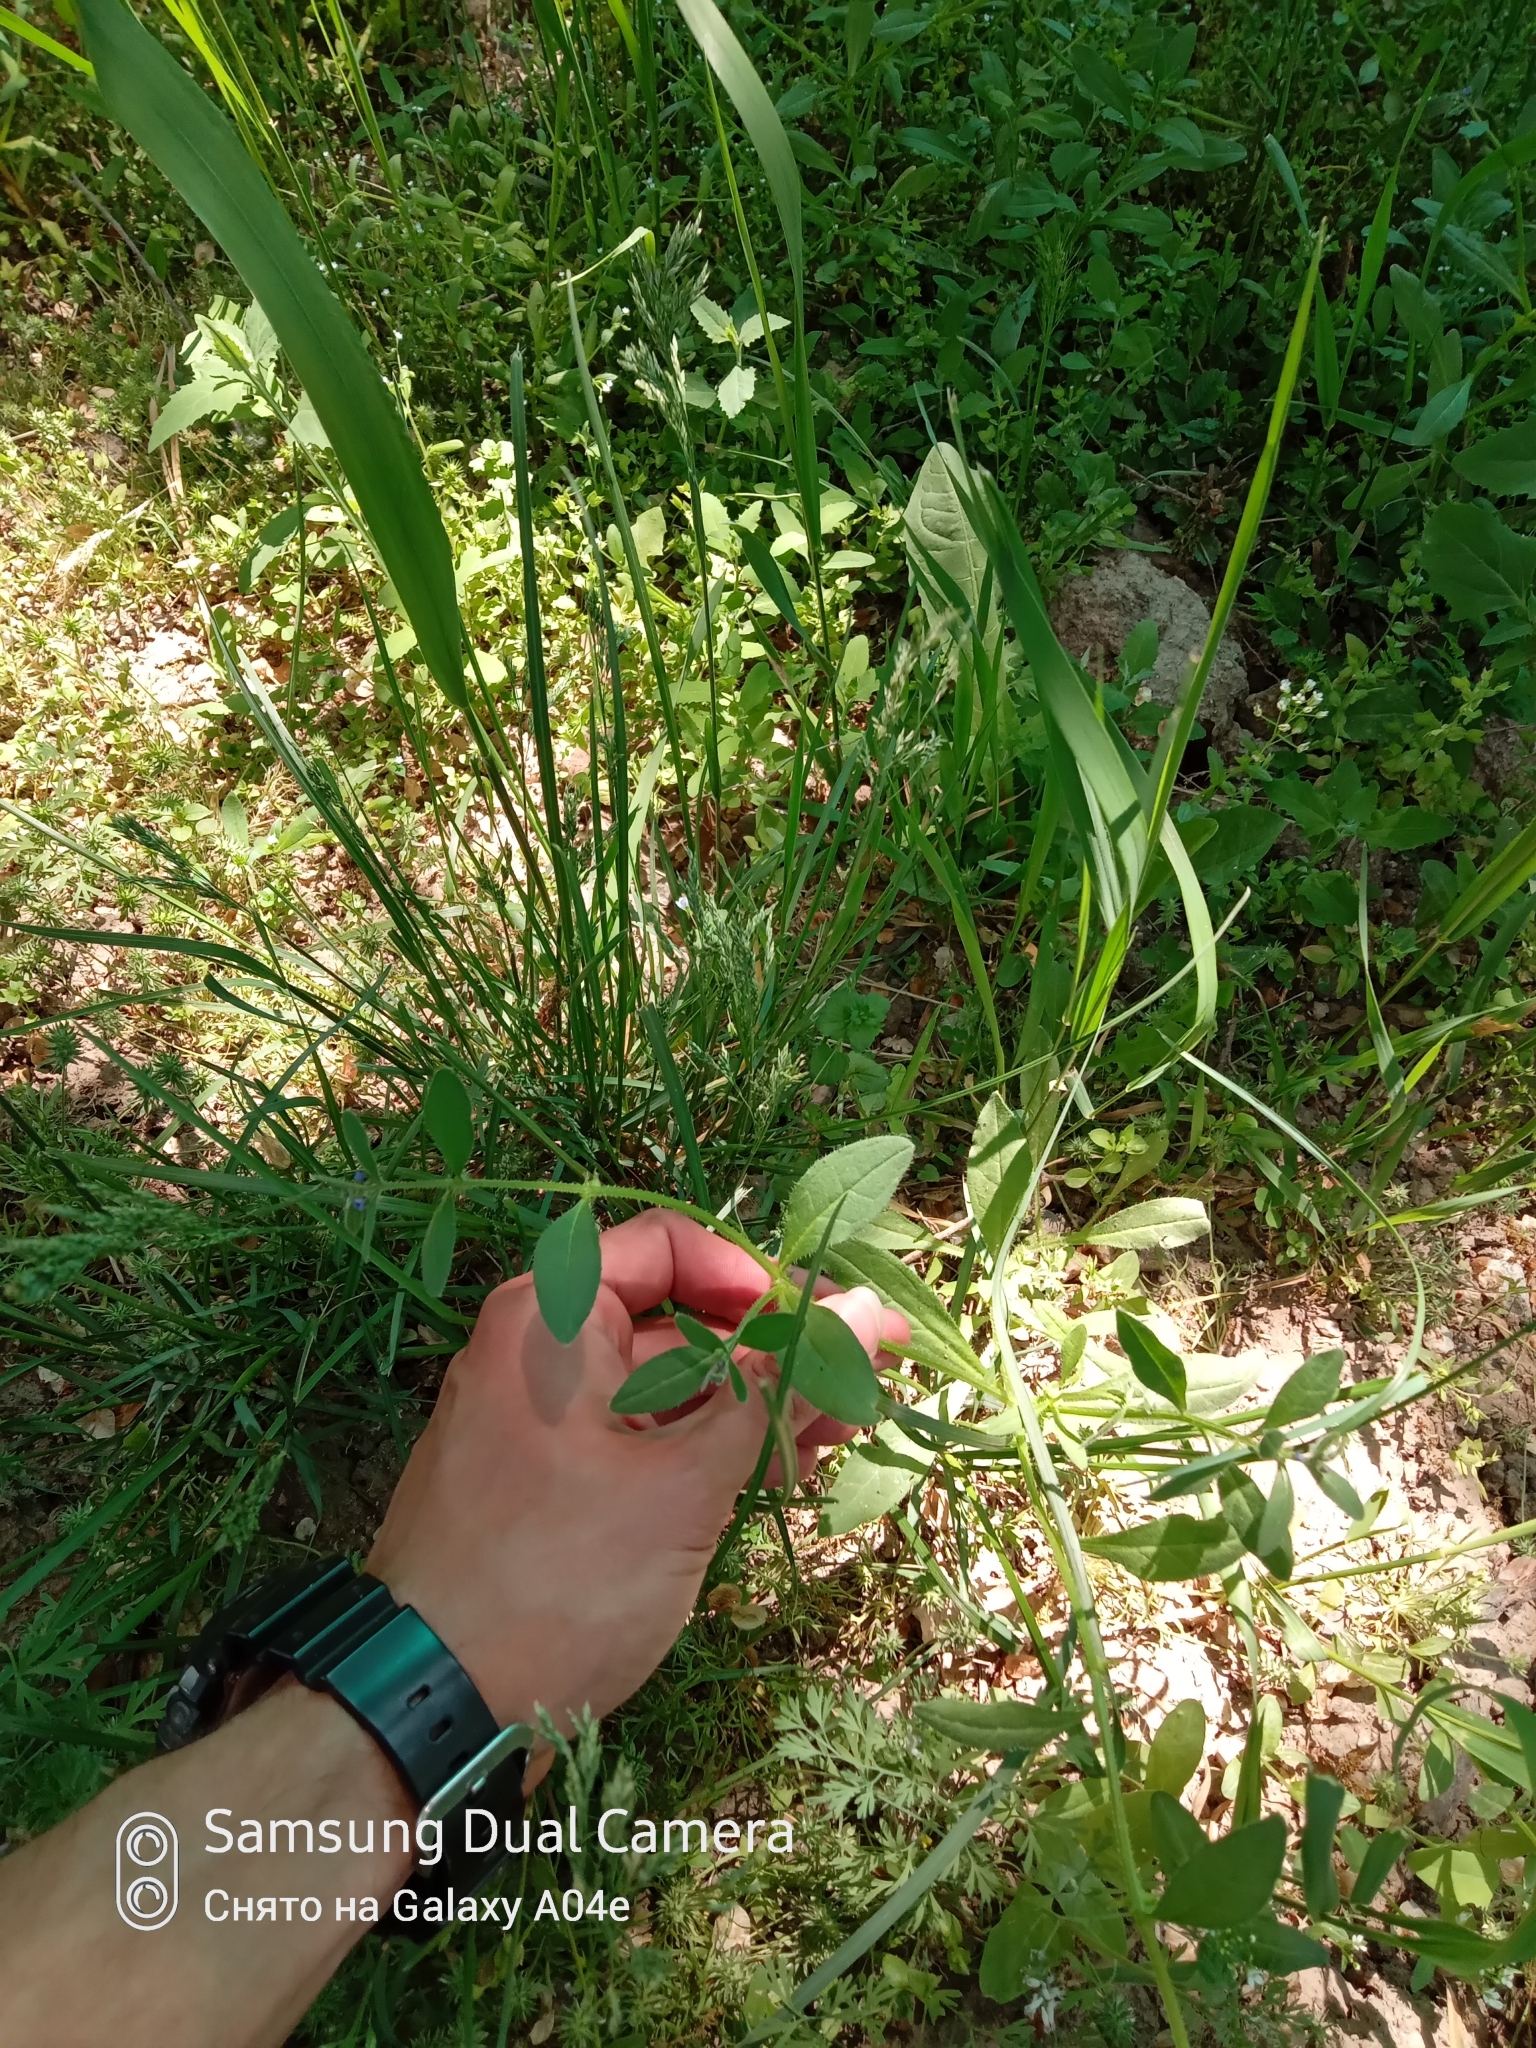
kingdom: Plantae
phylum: Tracheophyta
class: Magnoliopsida
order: Boraginales
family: Boraginaceae
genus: Asperugo
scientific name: Asperugo procumbens
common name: Madwort
